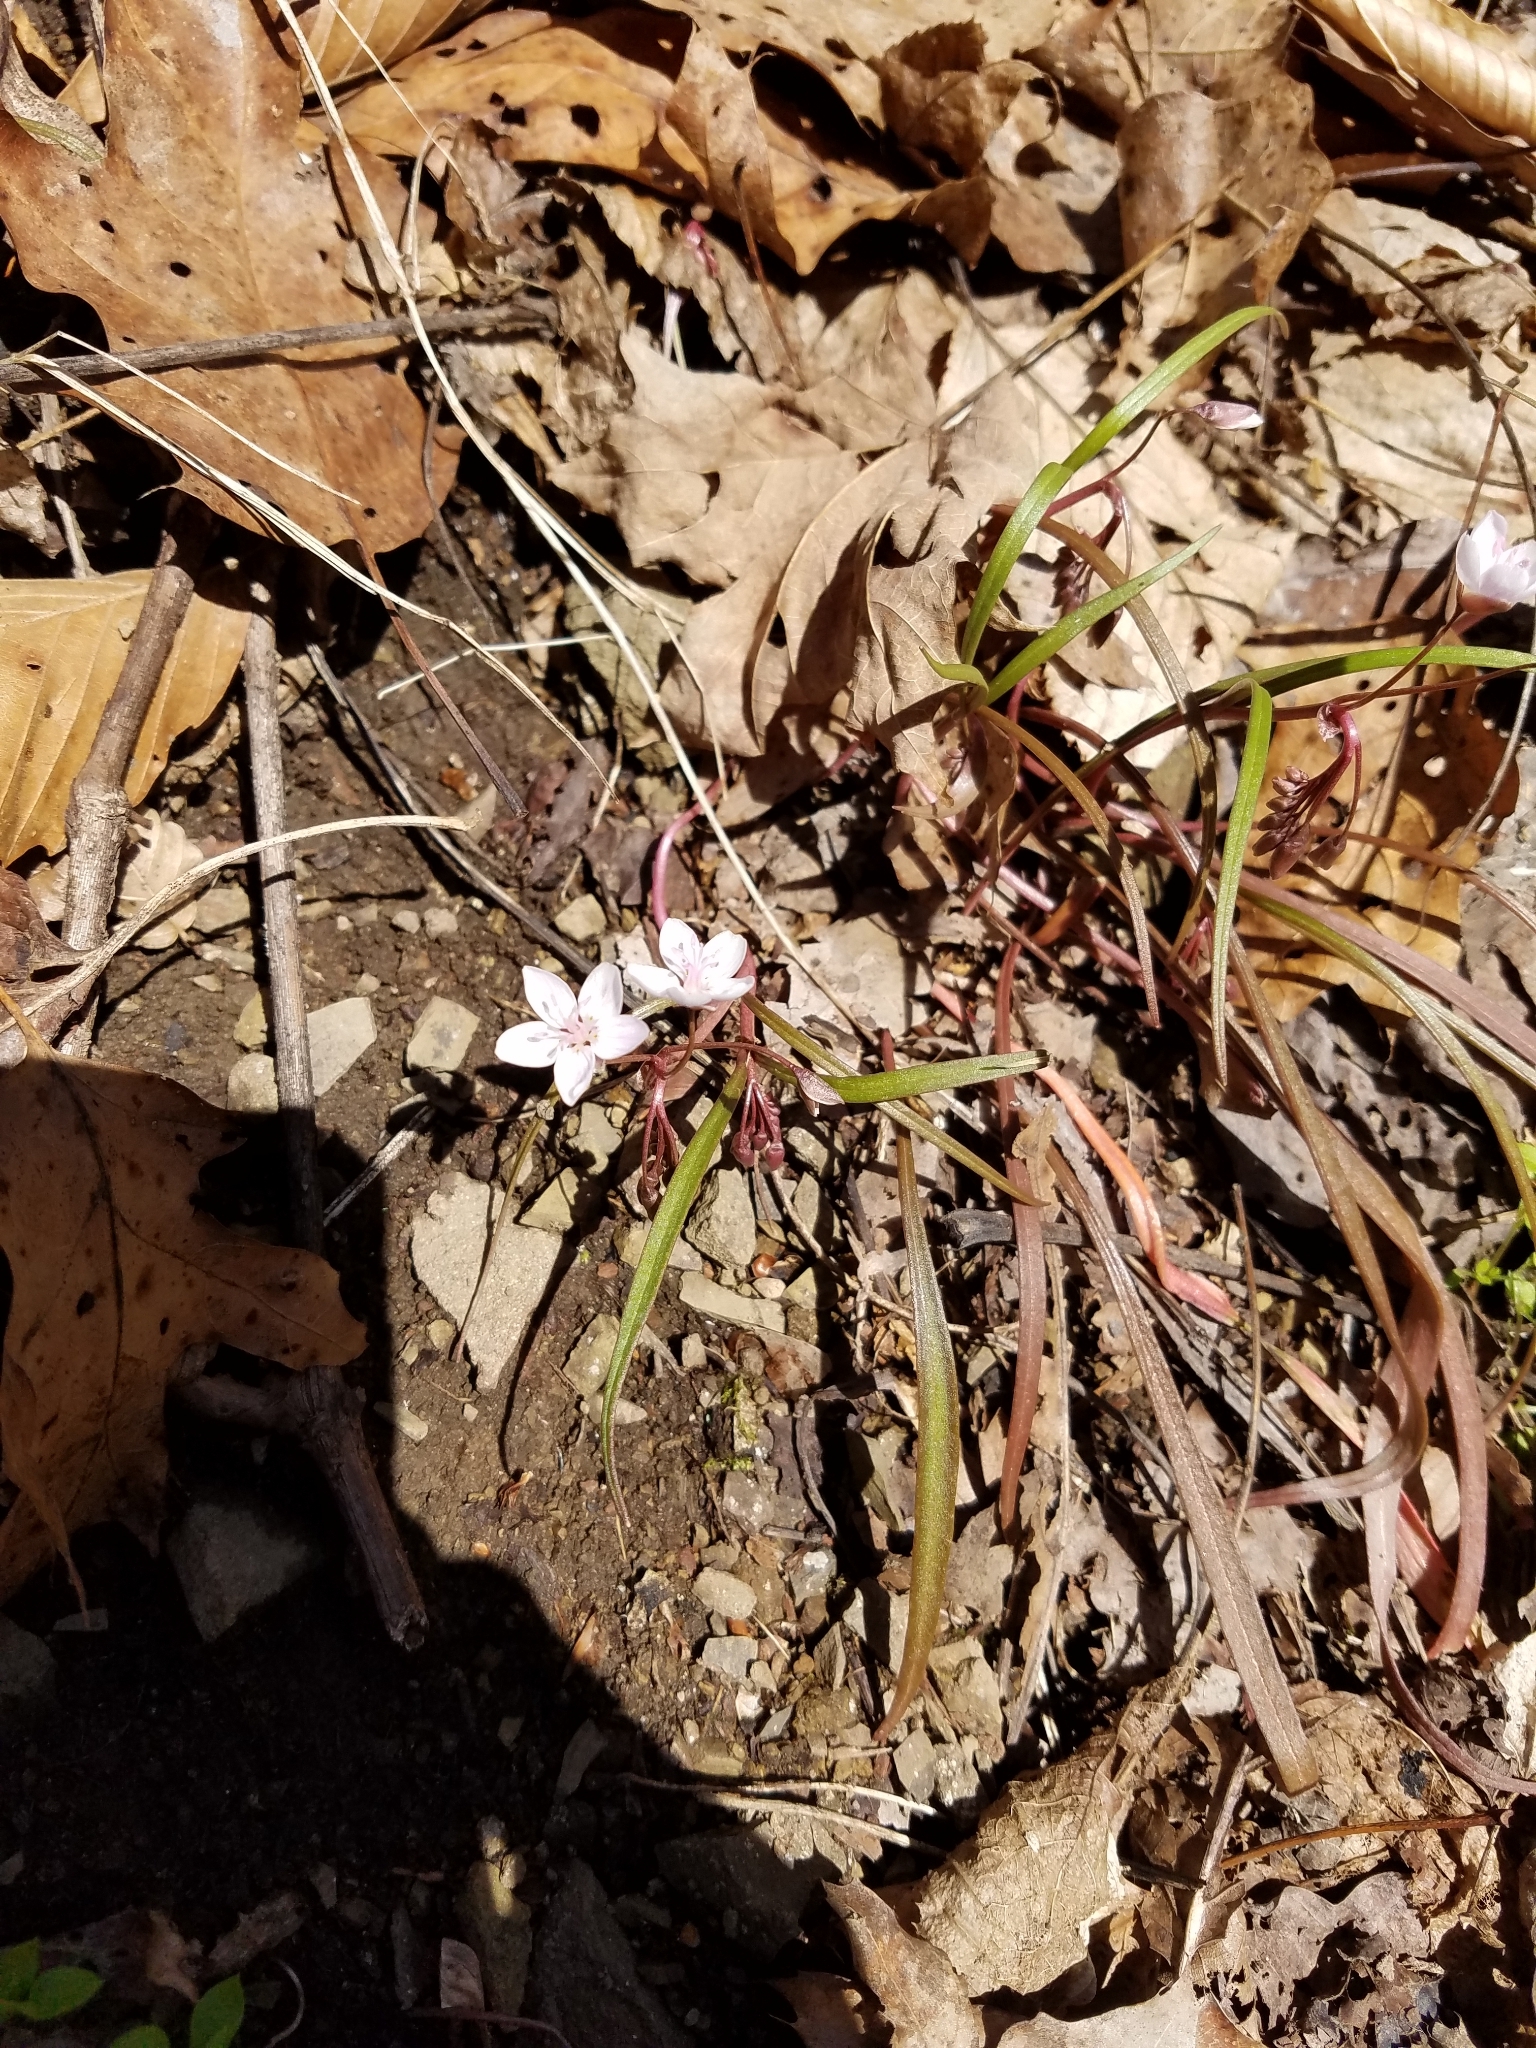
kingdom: Plantae
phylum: Tracheophyta
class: Magnoliopsida
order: Caryophyllales
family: Montiaceae
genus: Claytonia
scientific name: Claytonia virginica
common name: Virginia springbeauty
